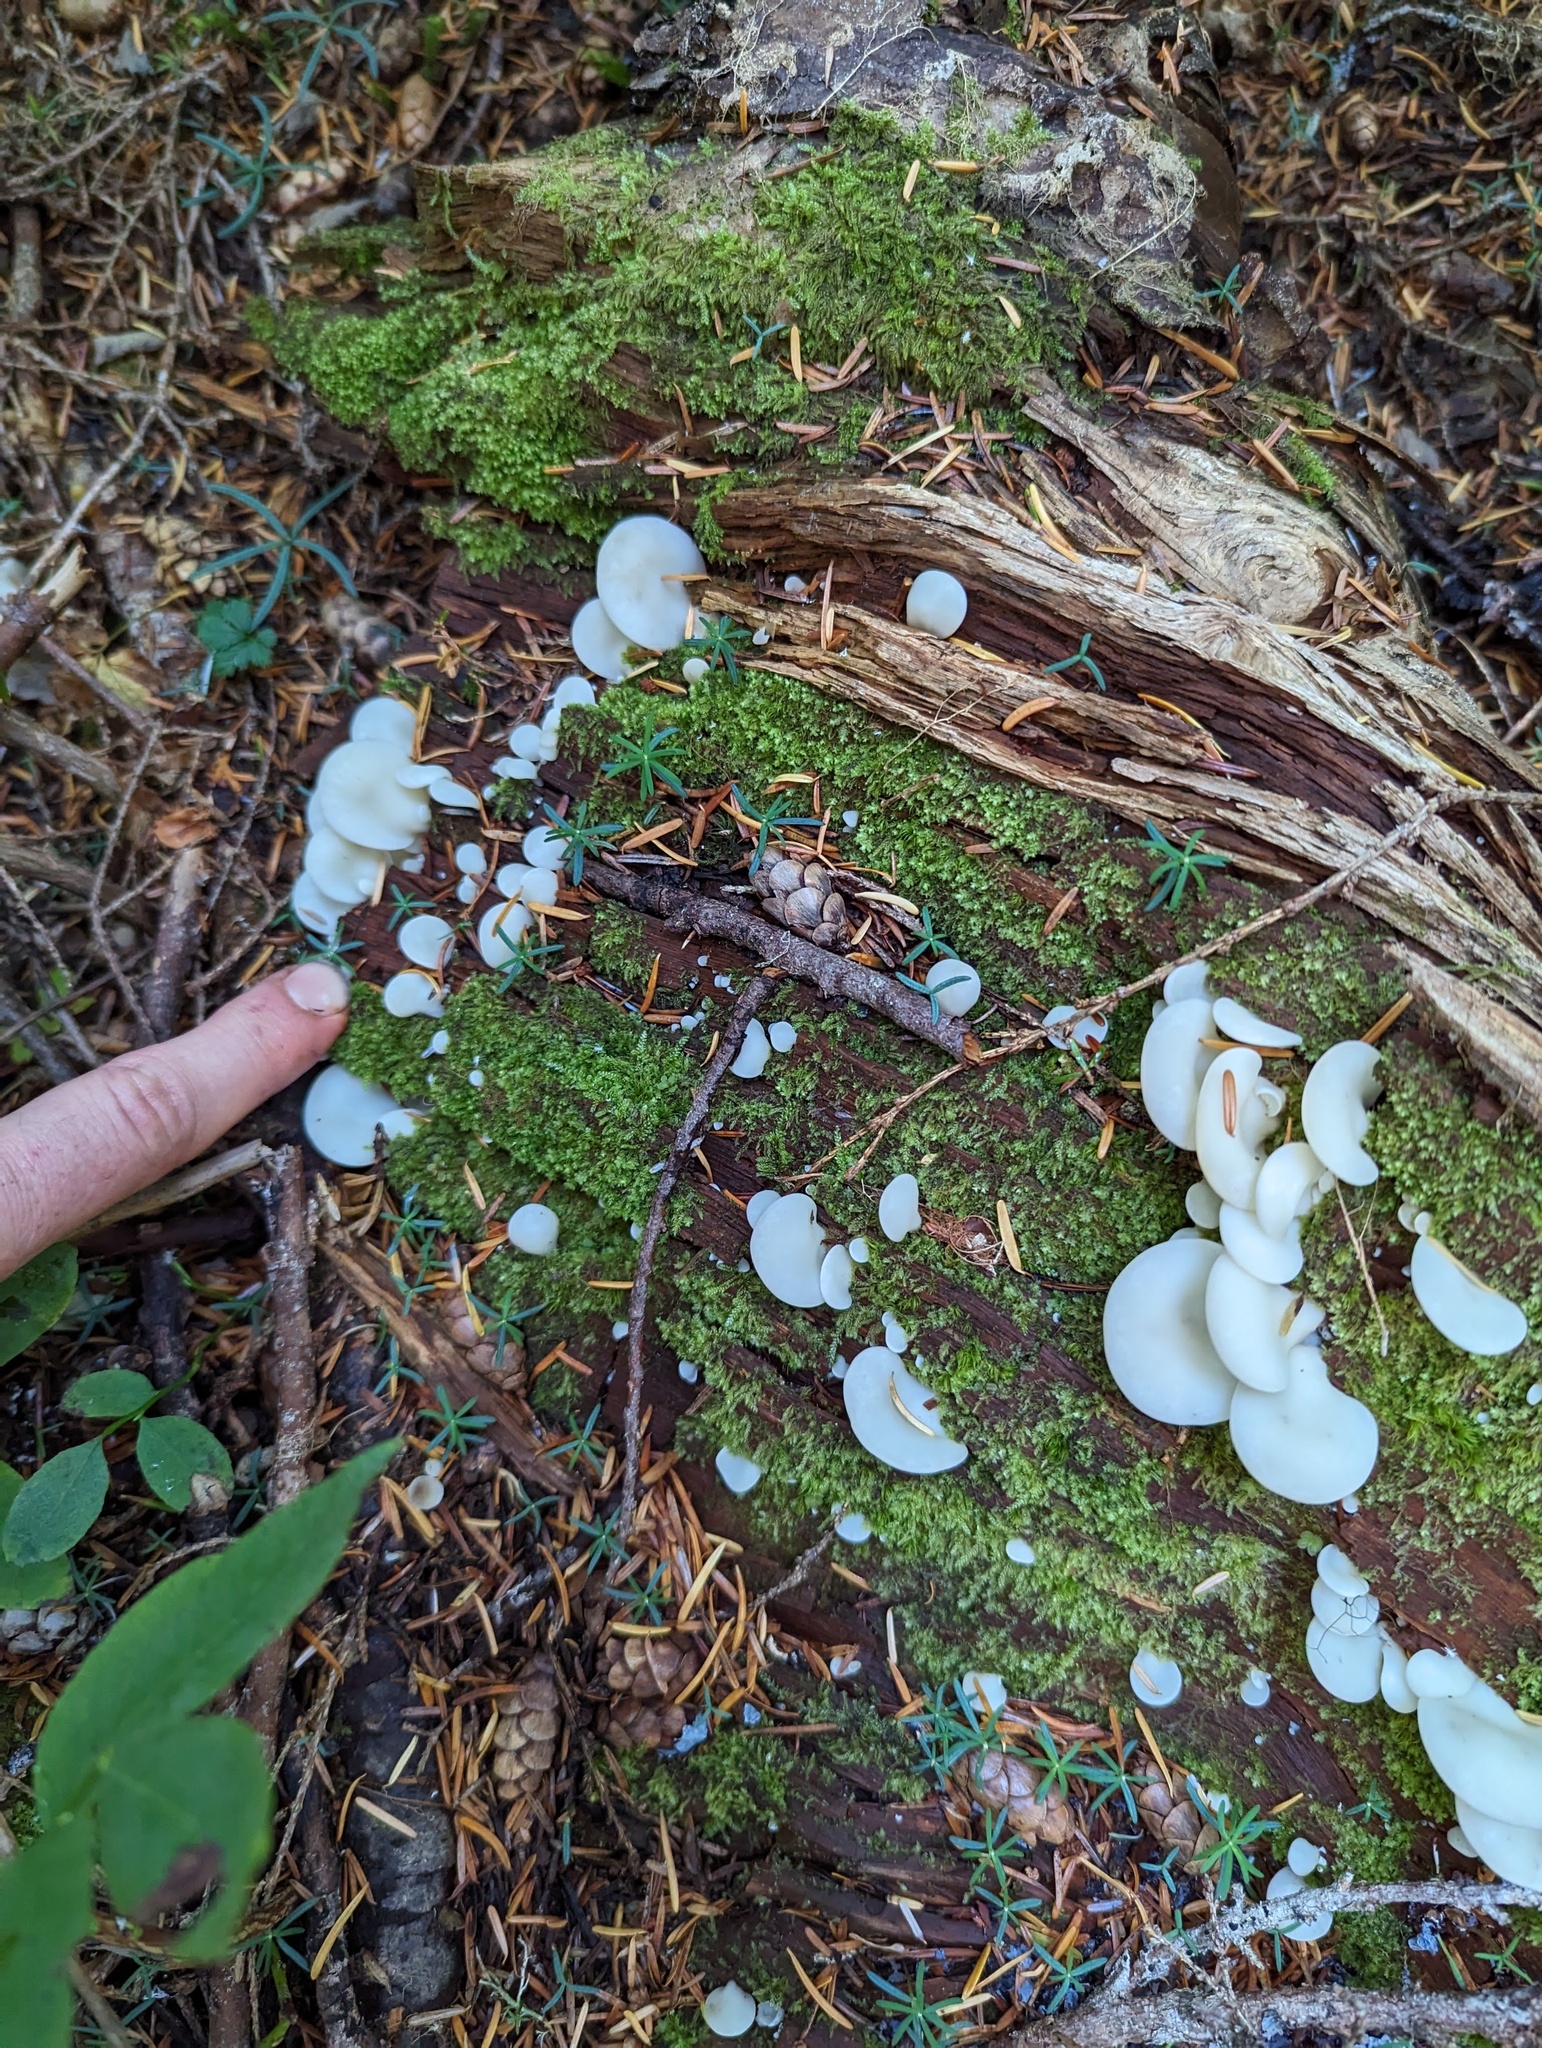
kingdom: Fungi
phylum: Basidiomycota
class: Agaricomycetes
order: Agaricales
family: Marasmiaceae
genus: Pleurocybella
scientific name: Pleurocybella porrigens
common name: Angel's wings
